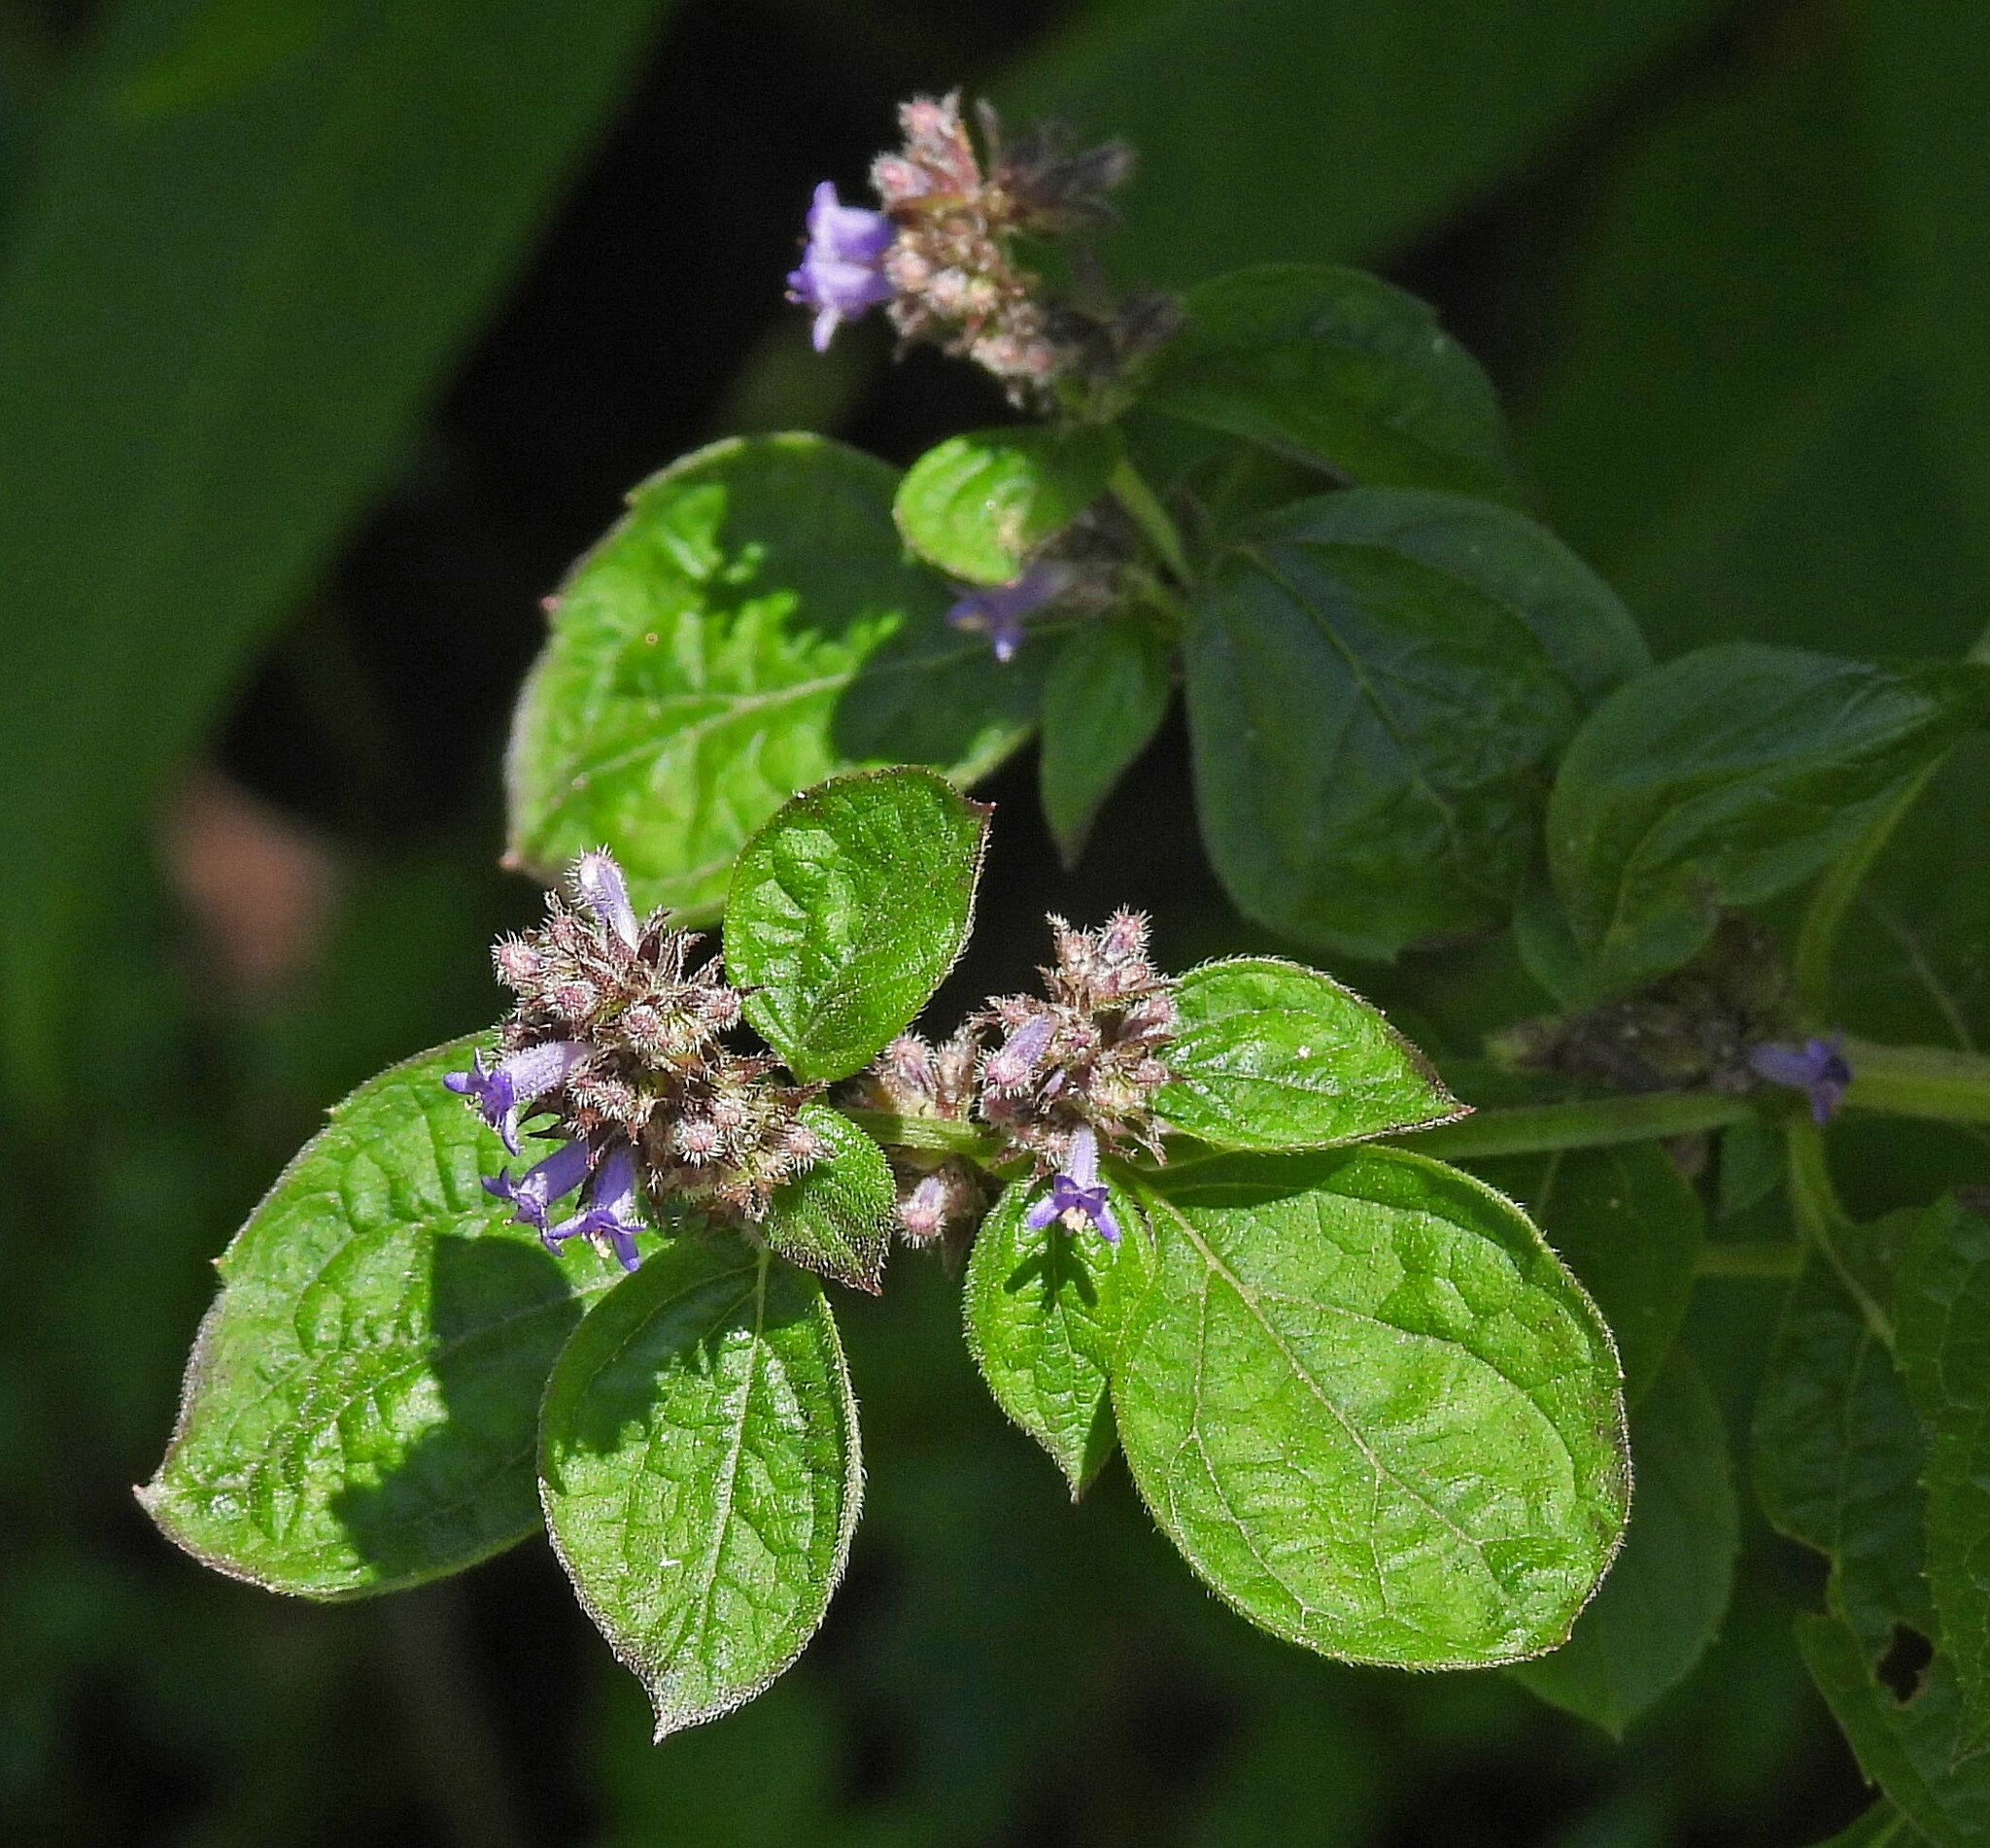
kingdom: Plantae
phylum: Tracheophyta
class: Magnoliopsida
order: Lamiales
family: Lamiaceae
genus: Cantinoa
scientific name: Cantinoa mutabilis
